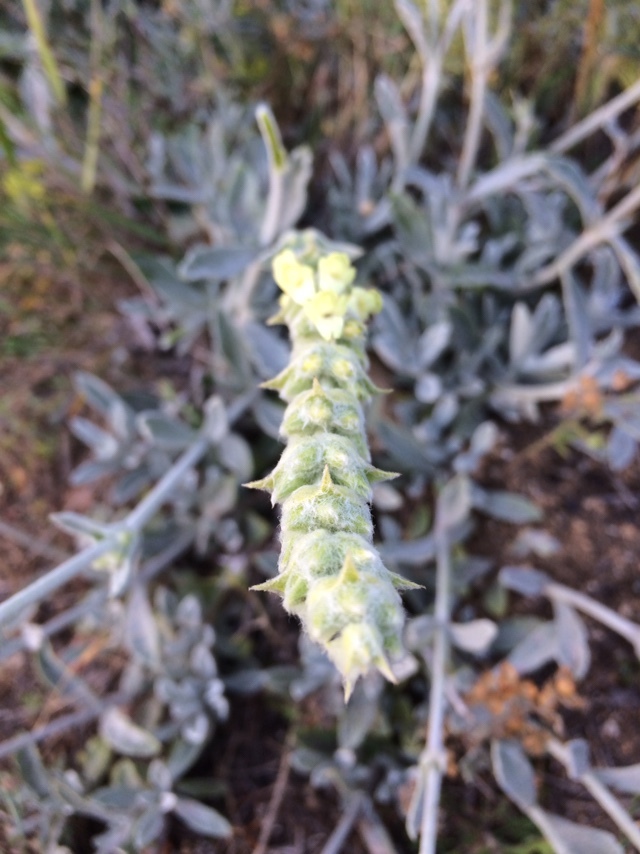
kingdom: Plantae
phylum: Tracheophyta
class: Magnoliopsida
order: Lamiales
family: Lamiaceae
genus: Sideritis
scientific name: Sideritis taurica
